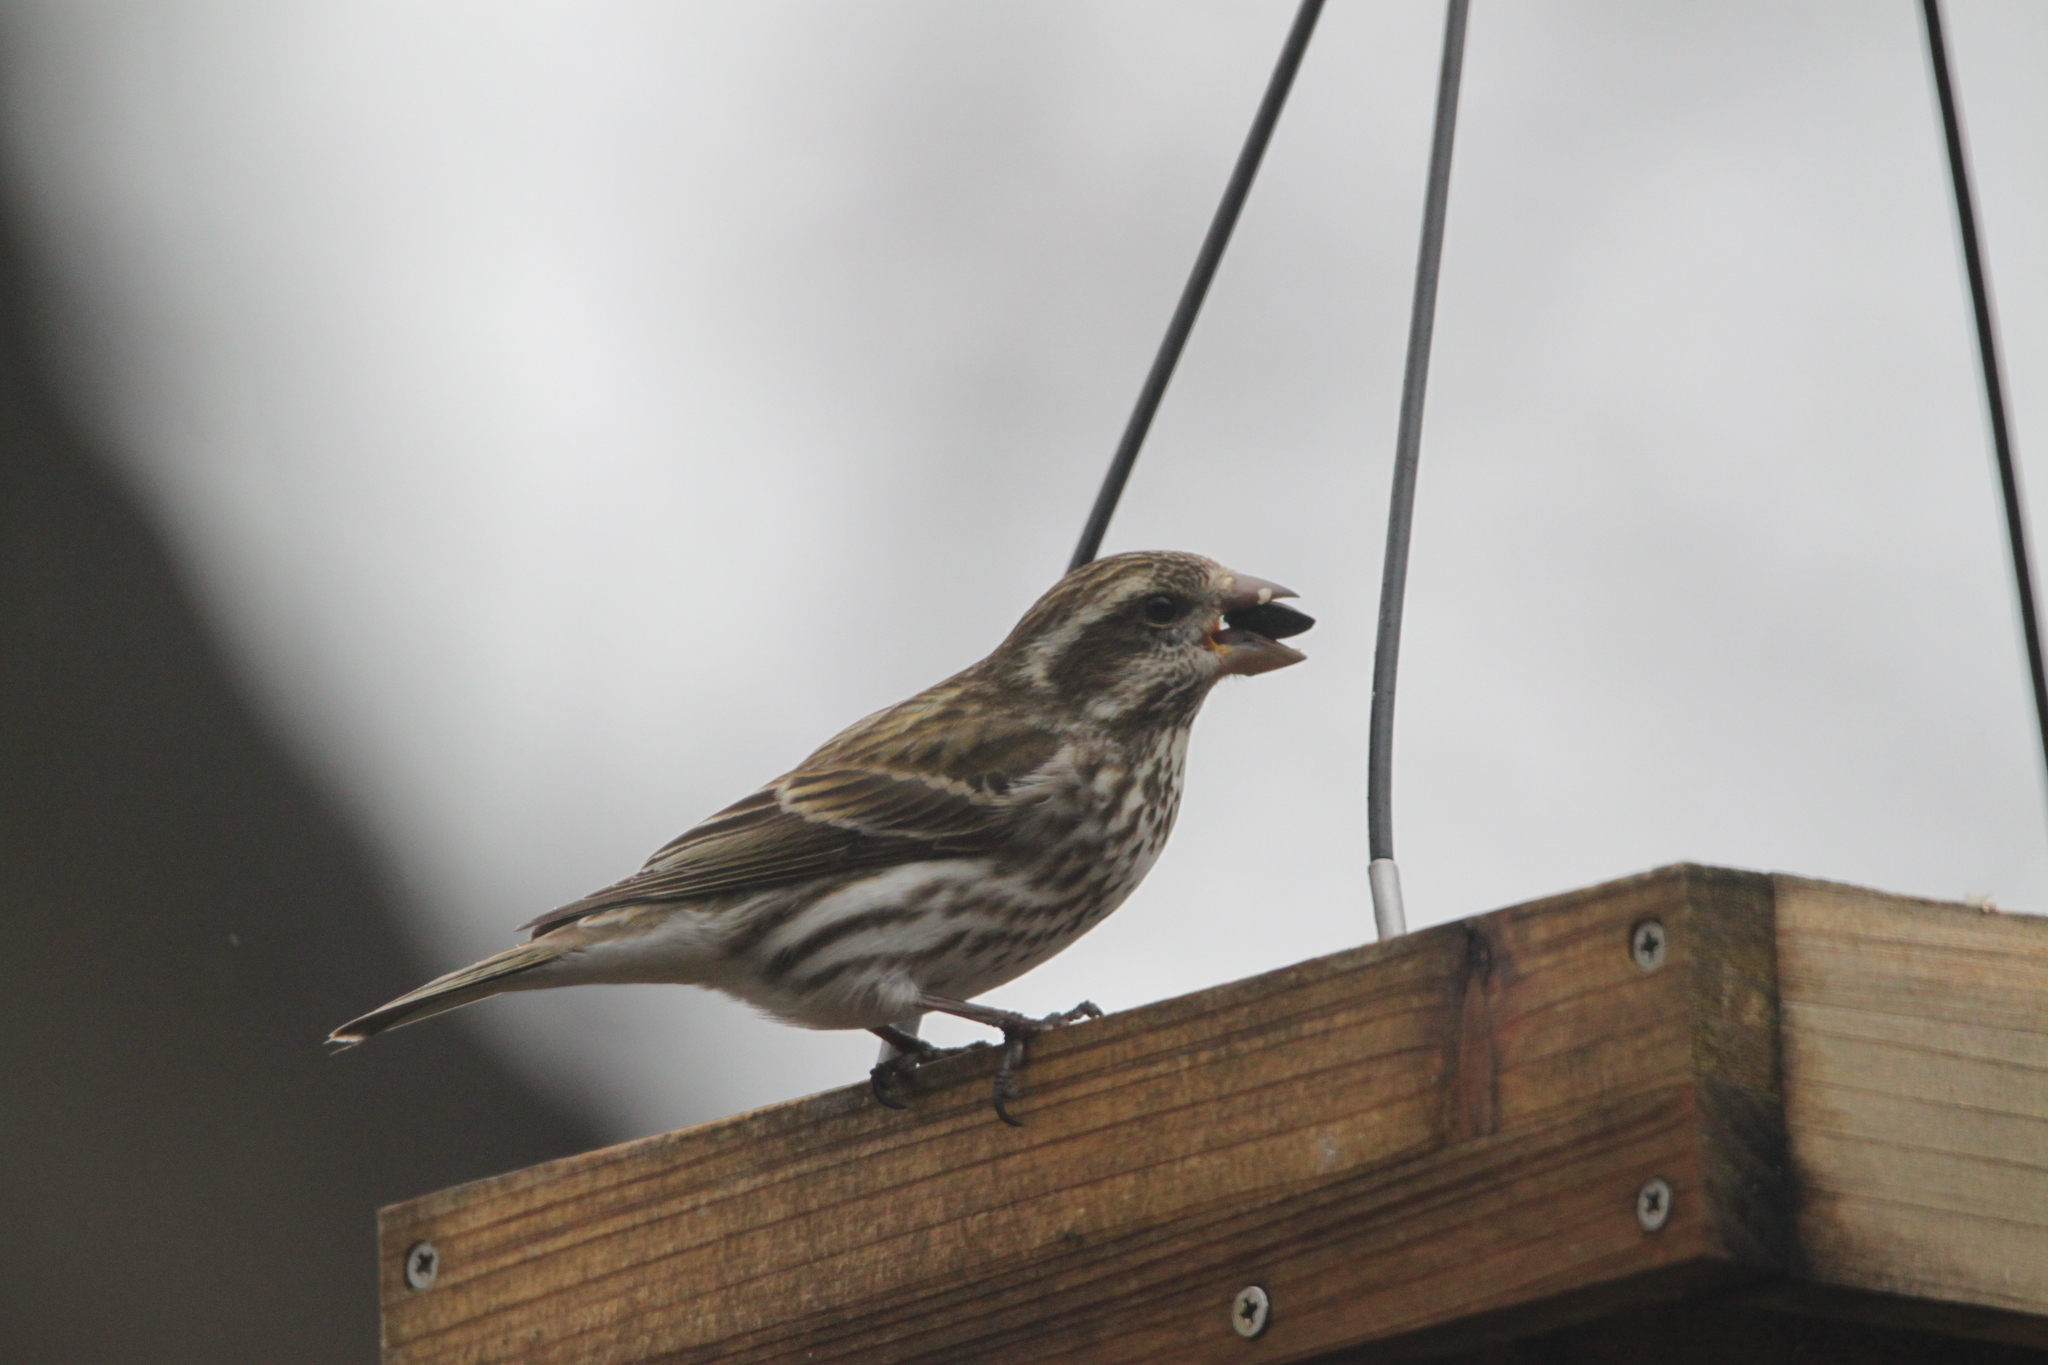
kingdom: Animalia
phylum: Chordata
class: Aves
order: Passeriformes
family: Fringillidae
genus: Haemorhous
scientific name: Haemorhous purpureus
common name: Purple finch
